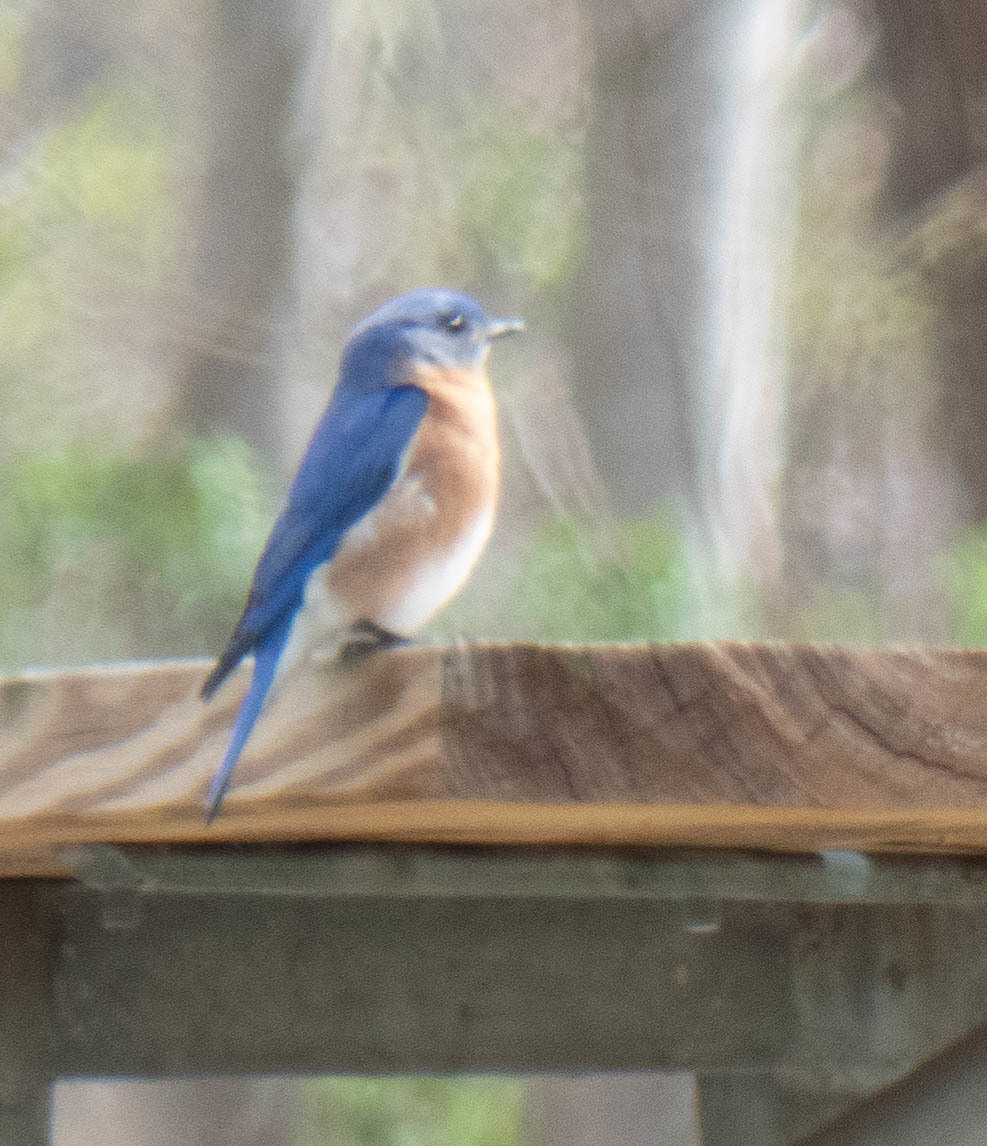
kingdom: Animalia
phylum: Chordata
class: Aves
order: Passeriformes
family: Turdidae
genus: Sialia
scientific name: Sialia sialis
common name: Eastern bluebird
